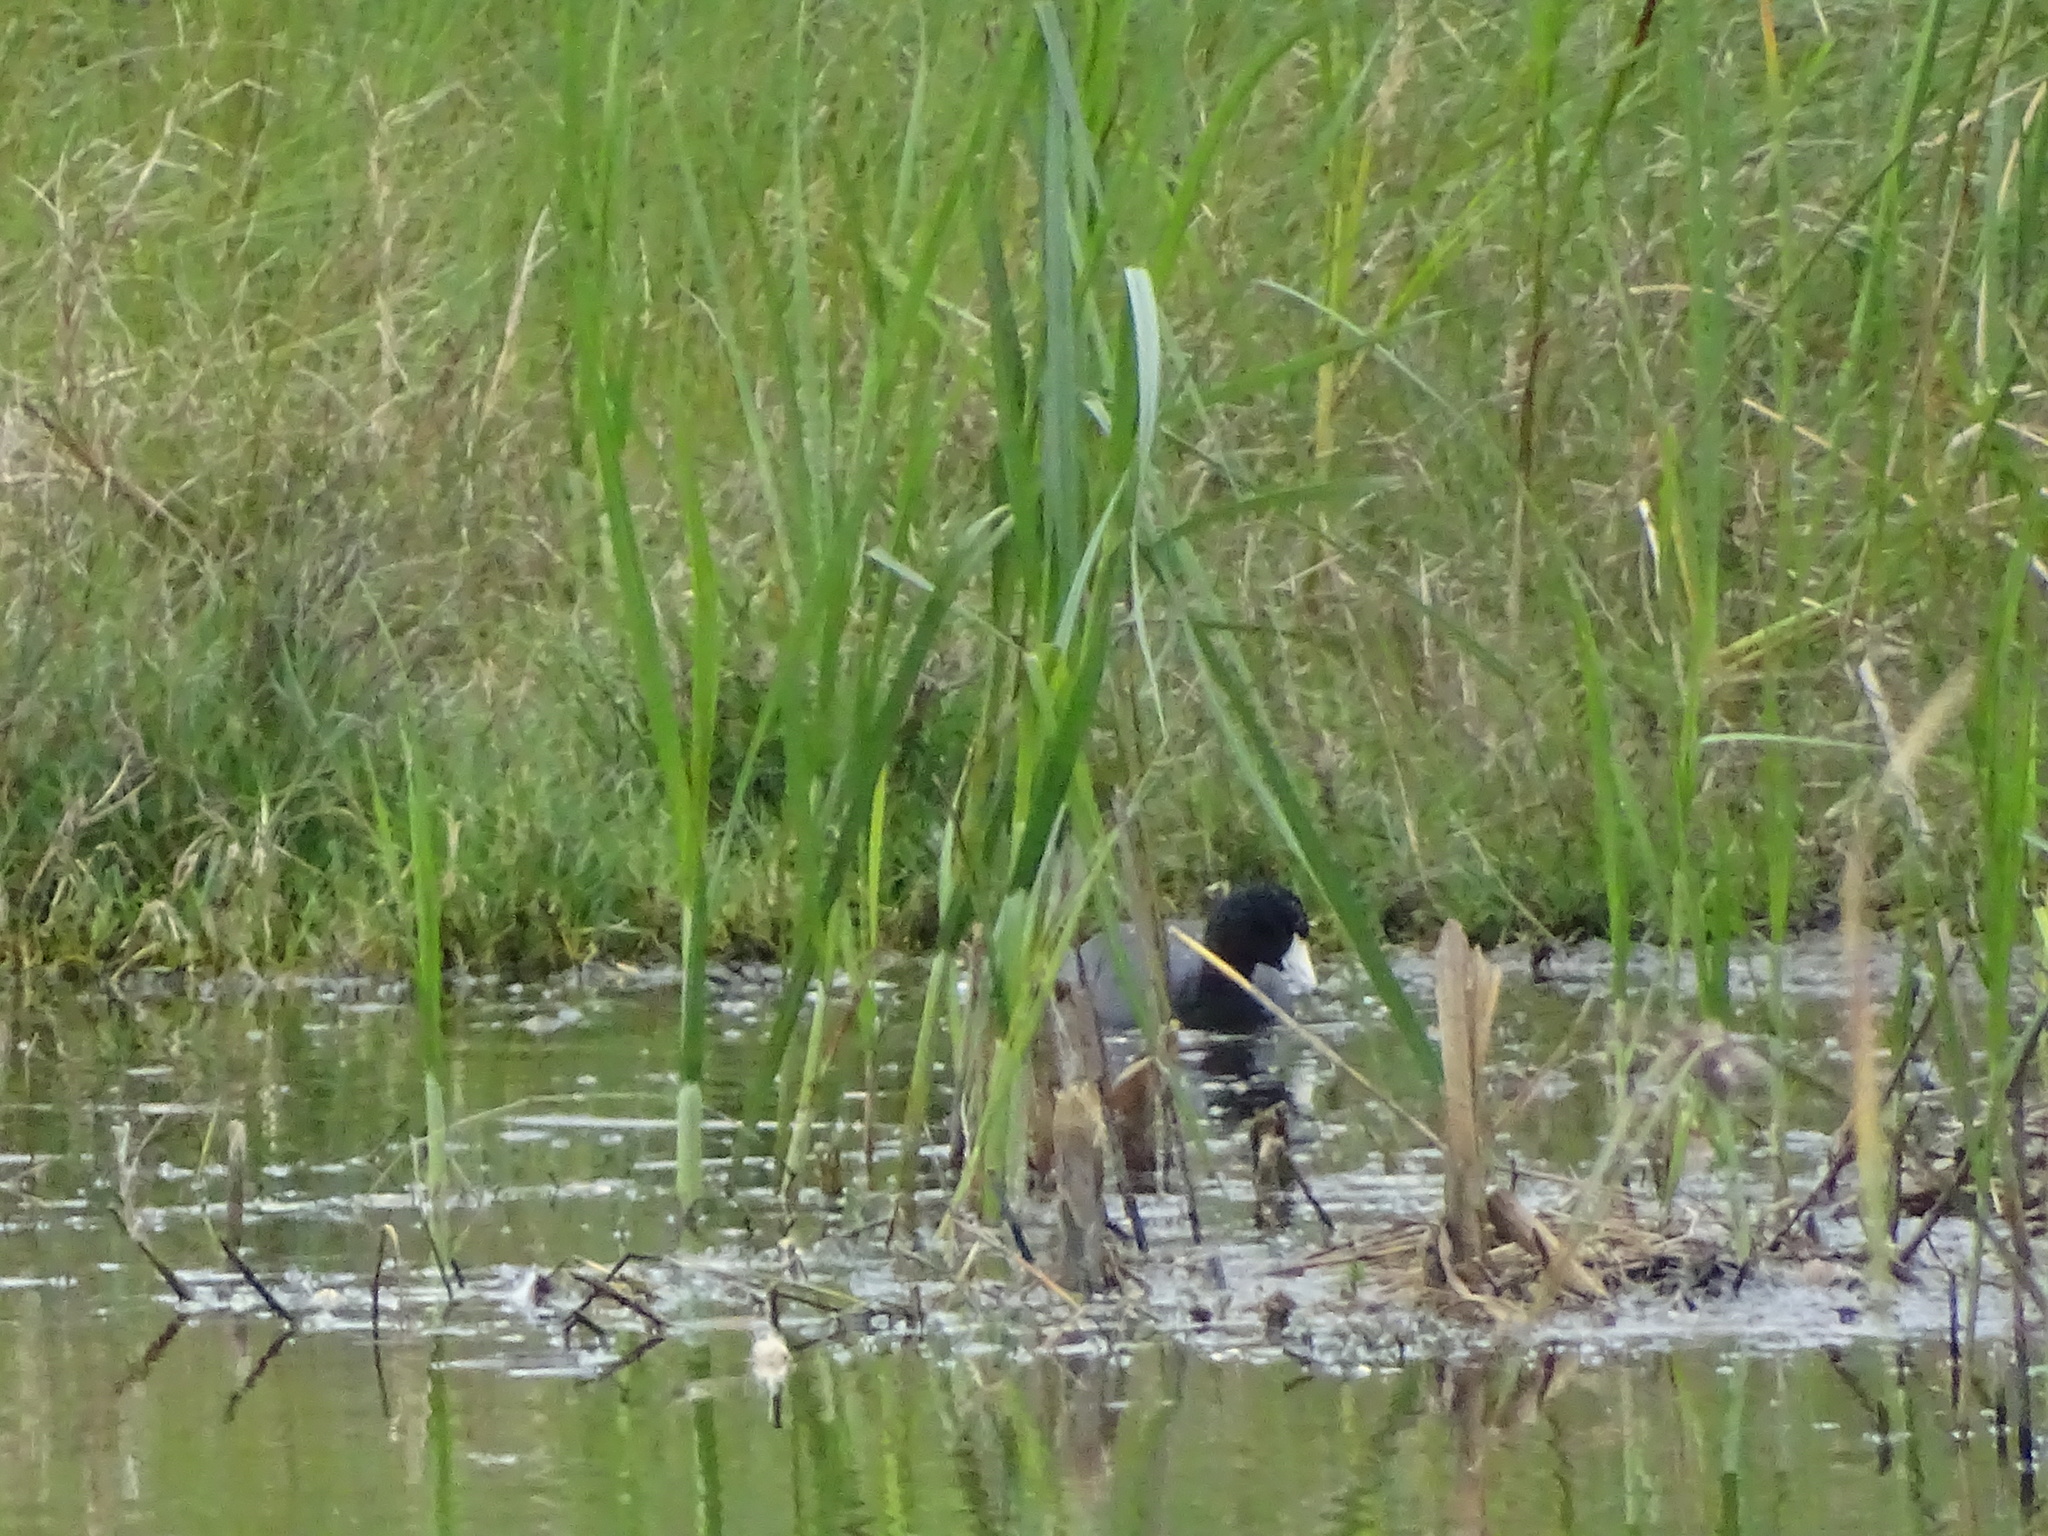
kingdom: Animalia
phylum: Chordata
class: Aves
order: Gruiformes
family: Rallidae
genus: Fulica
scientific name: Fulica americana
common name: American coot
